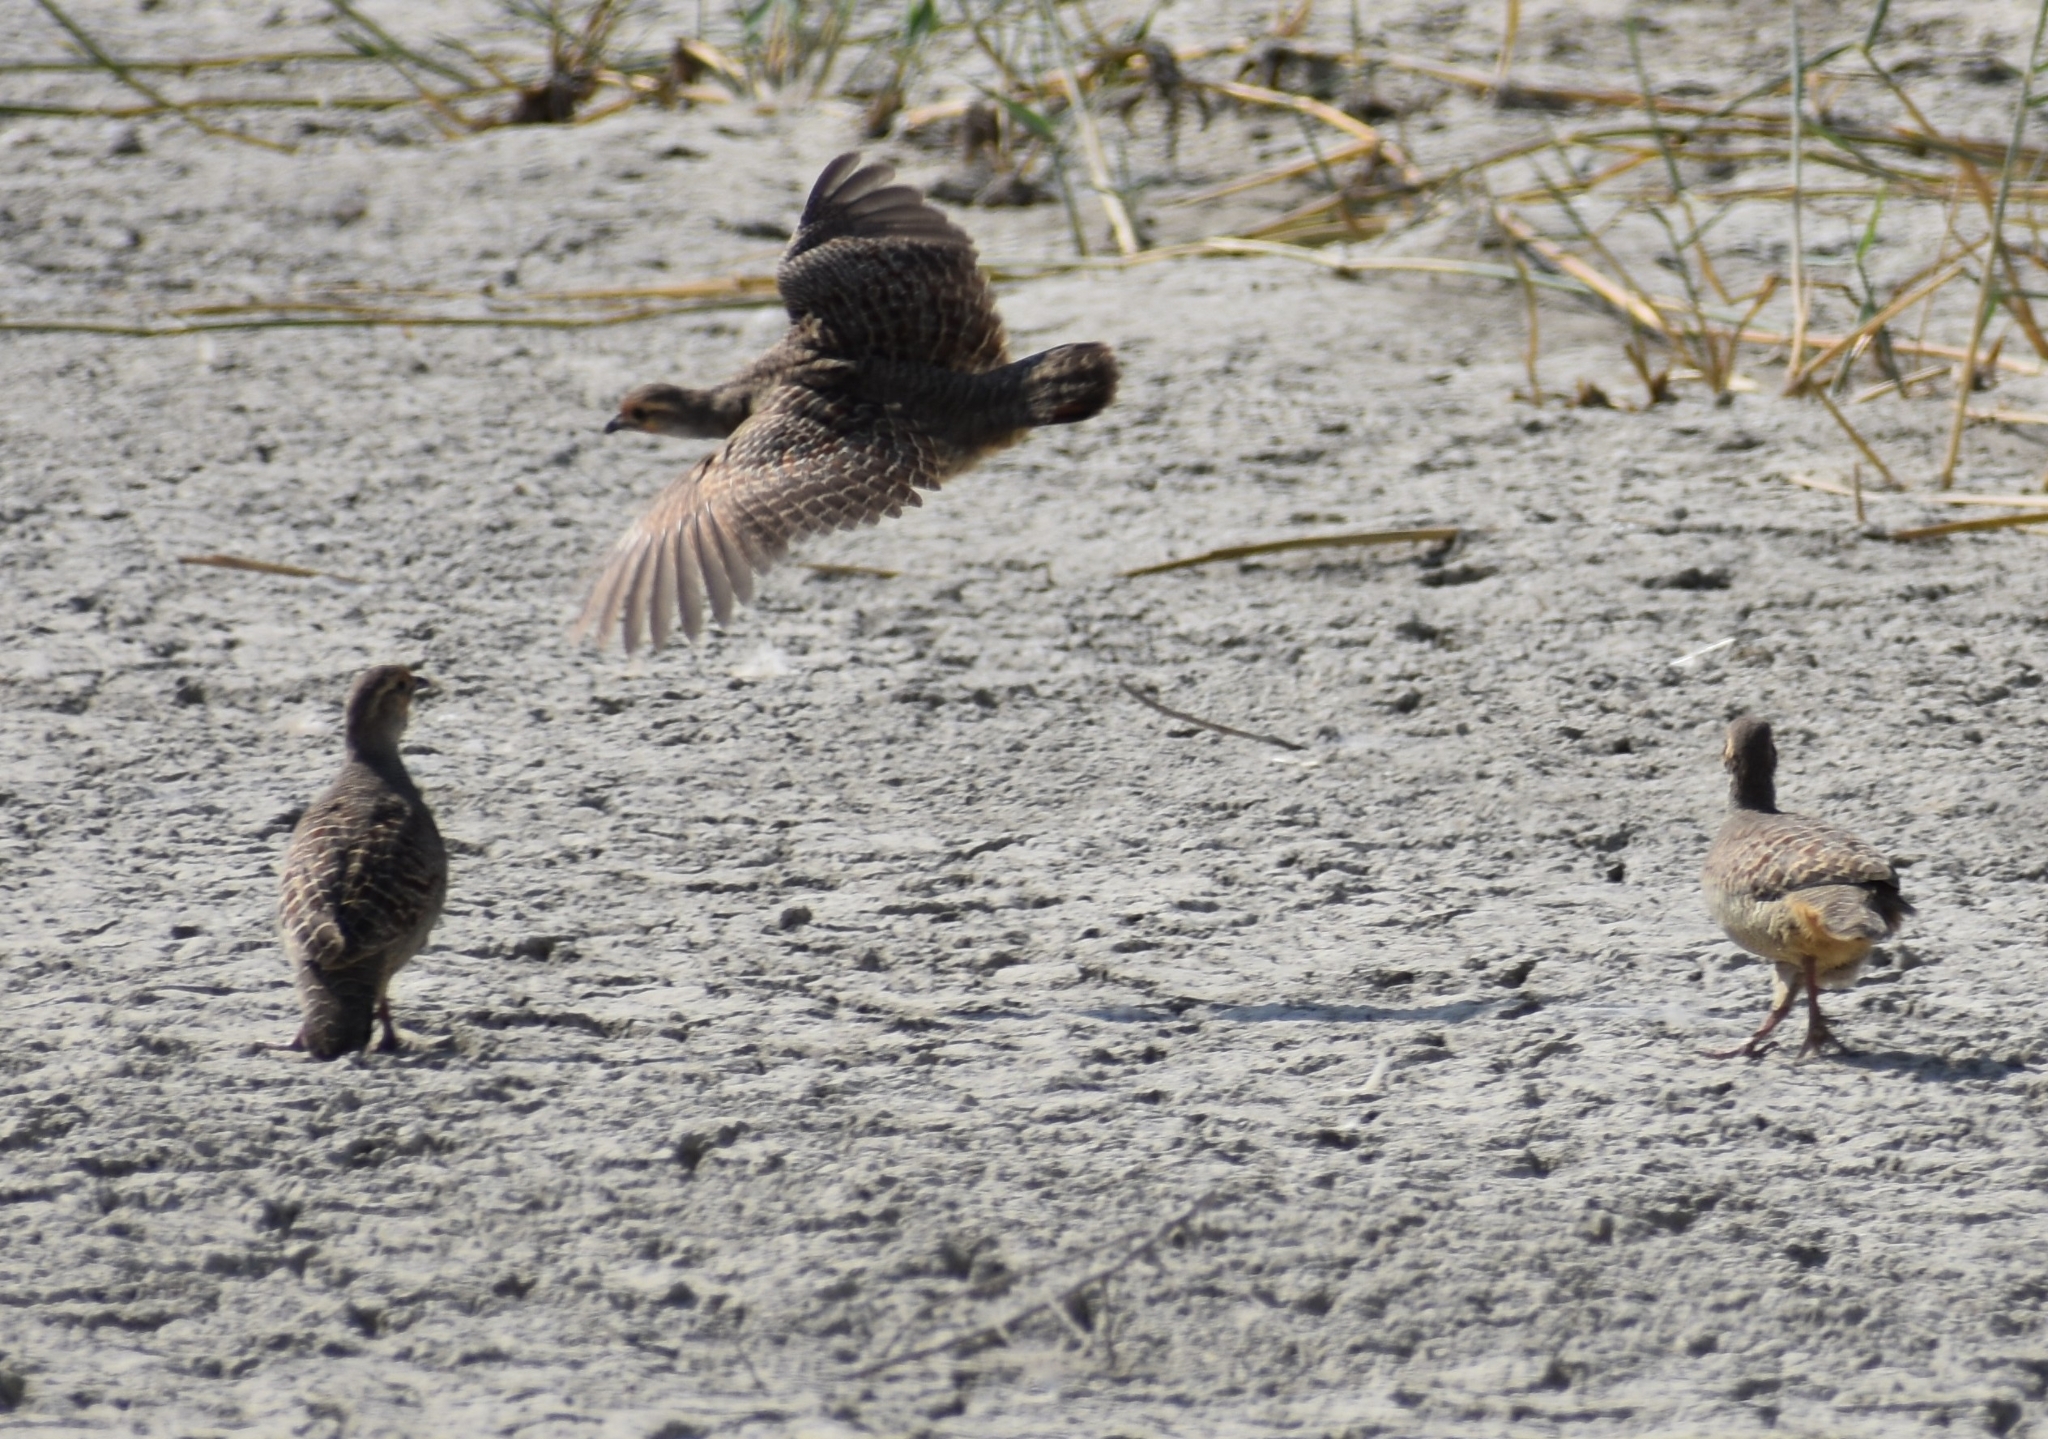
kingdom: Animalia
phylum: Chordata
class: Aves
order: Galliformes
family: Phasianidae
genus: Ortygornis
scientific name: Ortygornis pondicerianus
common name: Grey francolin
